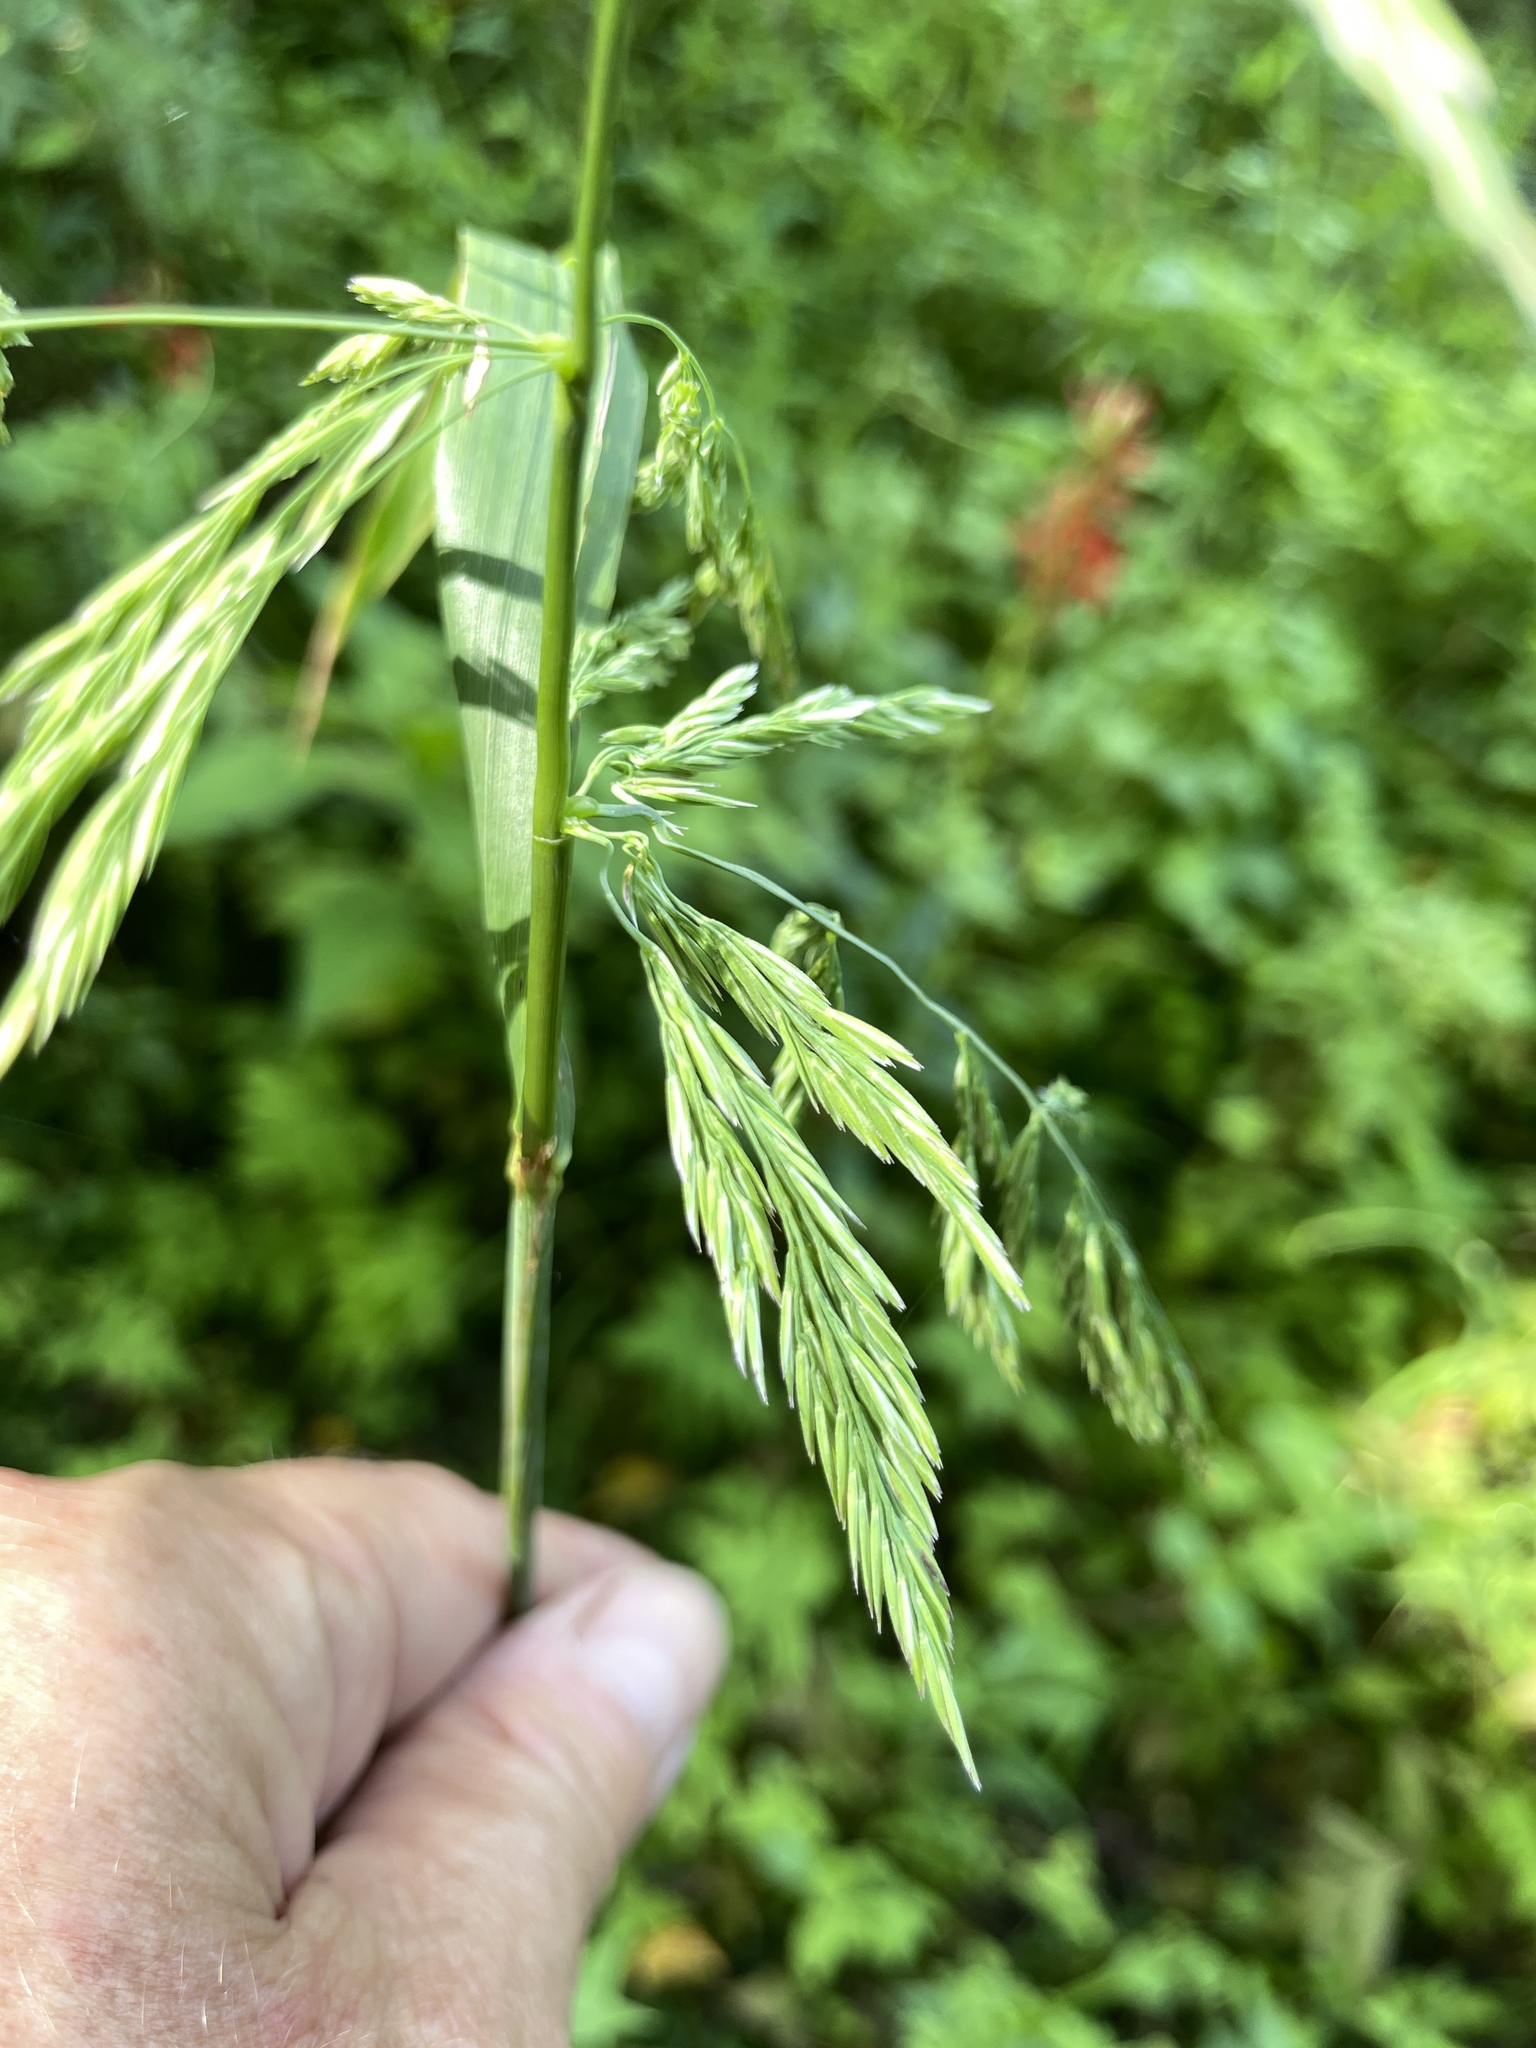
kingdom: Plantae
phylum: Tracheophyta
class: Liliopsida
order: Poales
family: Poaceae
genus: Cinna
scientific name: Cinna arundinacea
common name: Stout woodreed
